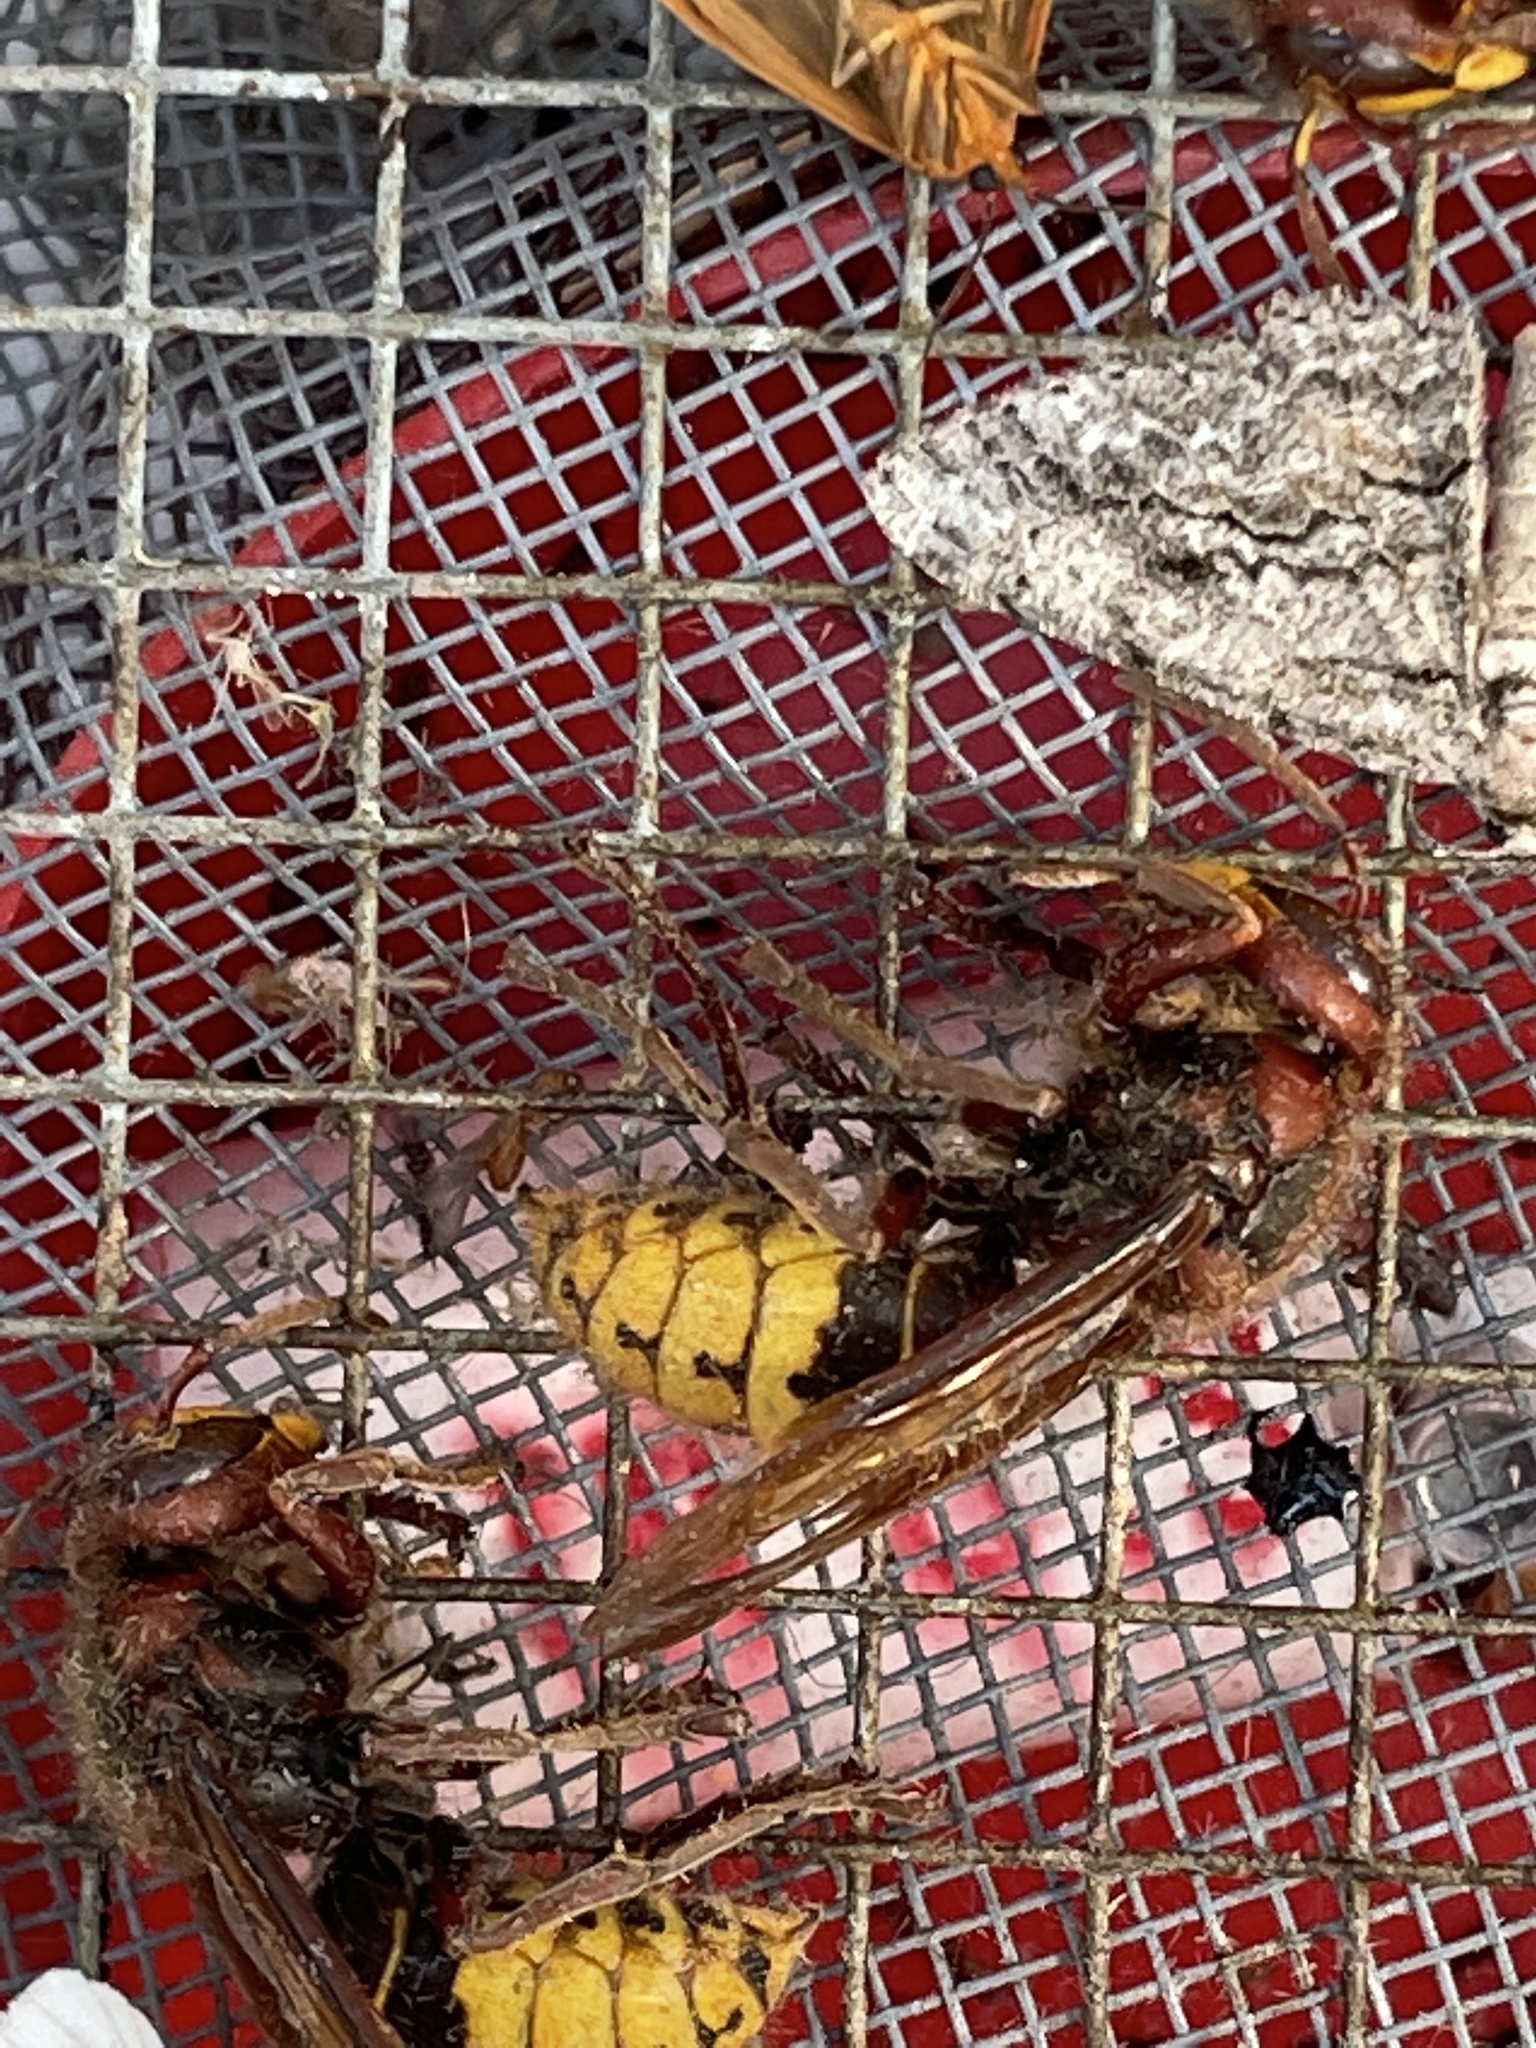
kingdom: Animalia
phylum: Arthropoda
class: Insecta
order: Hymenoptera
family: Vespidae
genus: Vespa
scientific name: Vespa crabro
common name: Hornet
